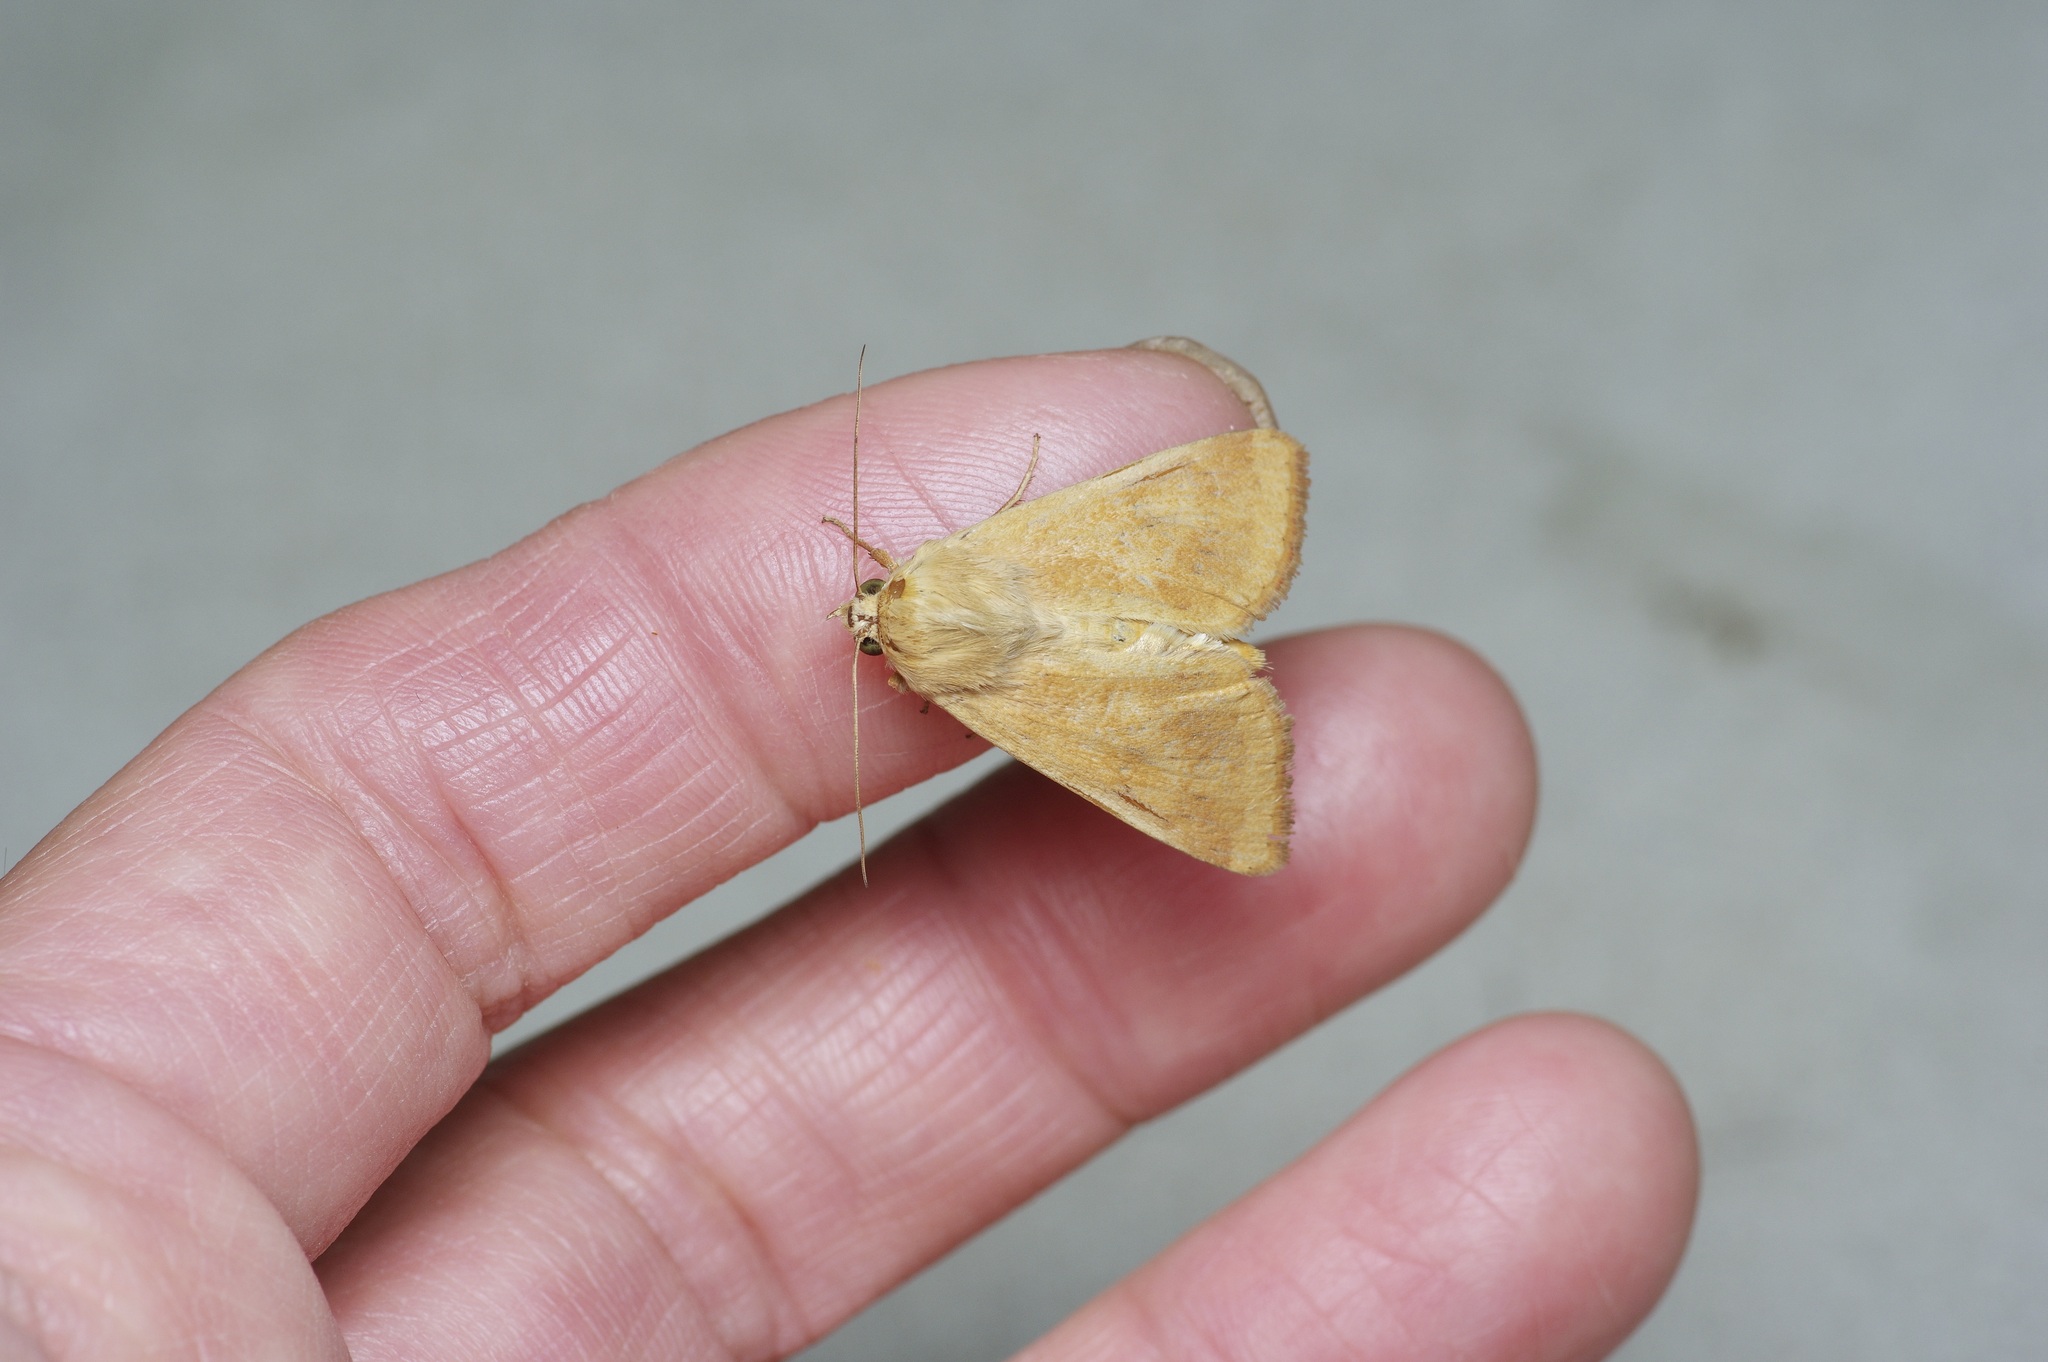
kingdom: Animalia
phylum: Arthropoda
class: Insecta
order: Lepidoptera
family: Noctuidae
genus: Helicoverpa
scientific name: Helicoverpa zea
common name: Bollworm
